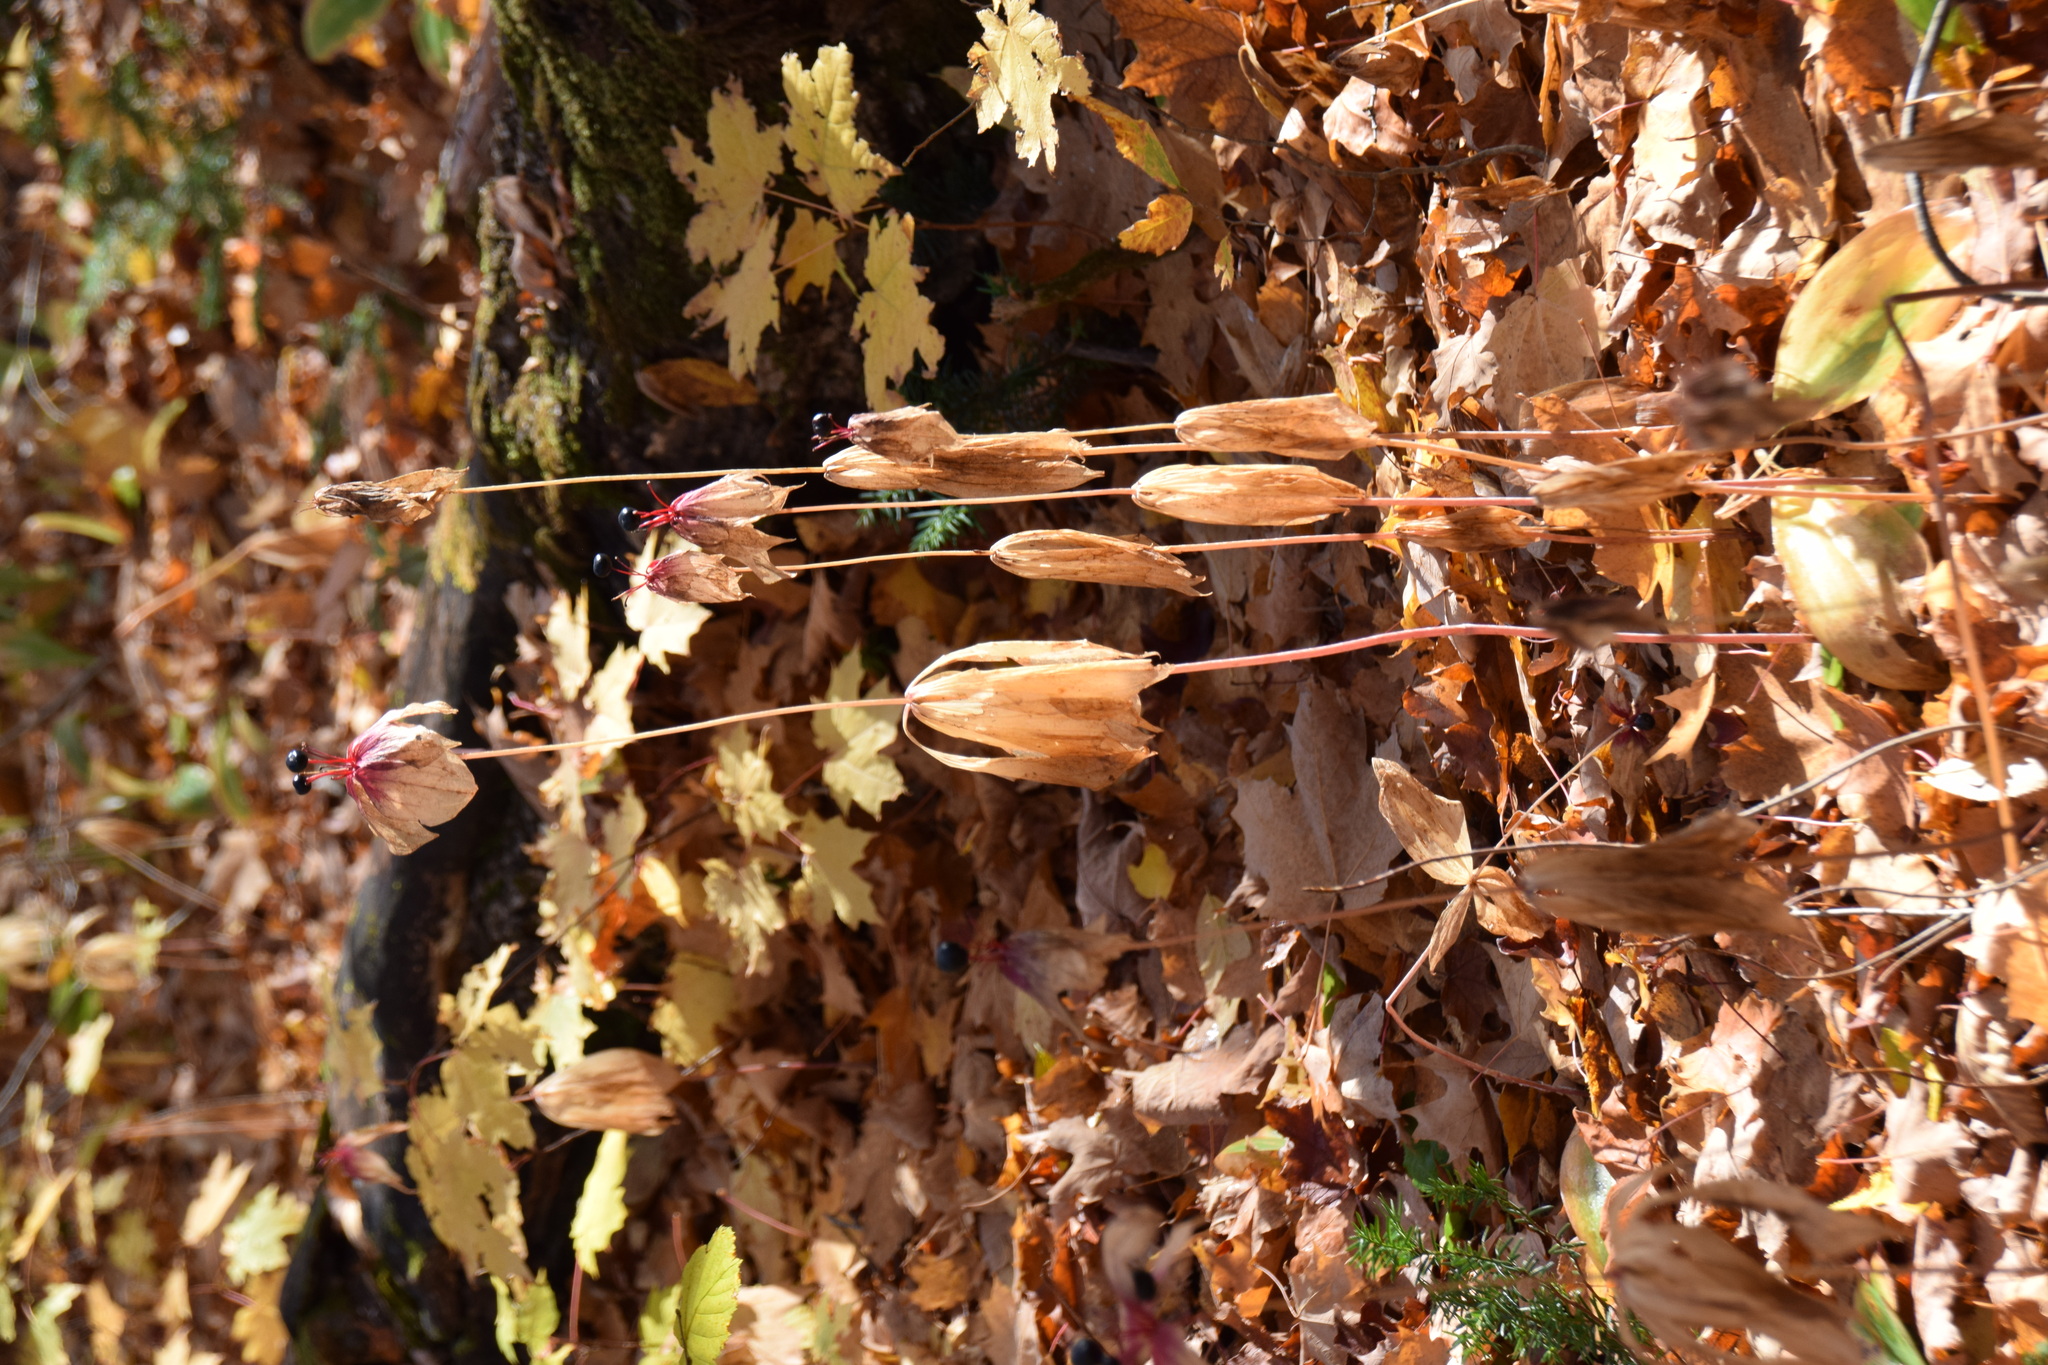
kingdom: Plantae
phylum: Tracheophyta
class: Liliopsida
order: Liliales
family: Liliaceae
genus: Medeola
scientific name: Medeola virginiana
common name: Indian cucumber-root
